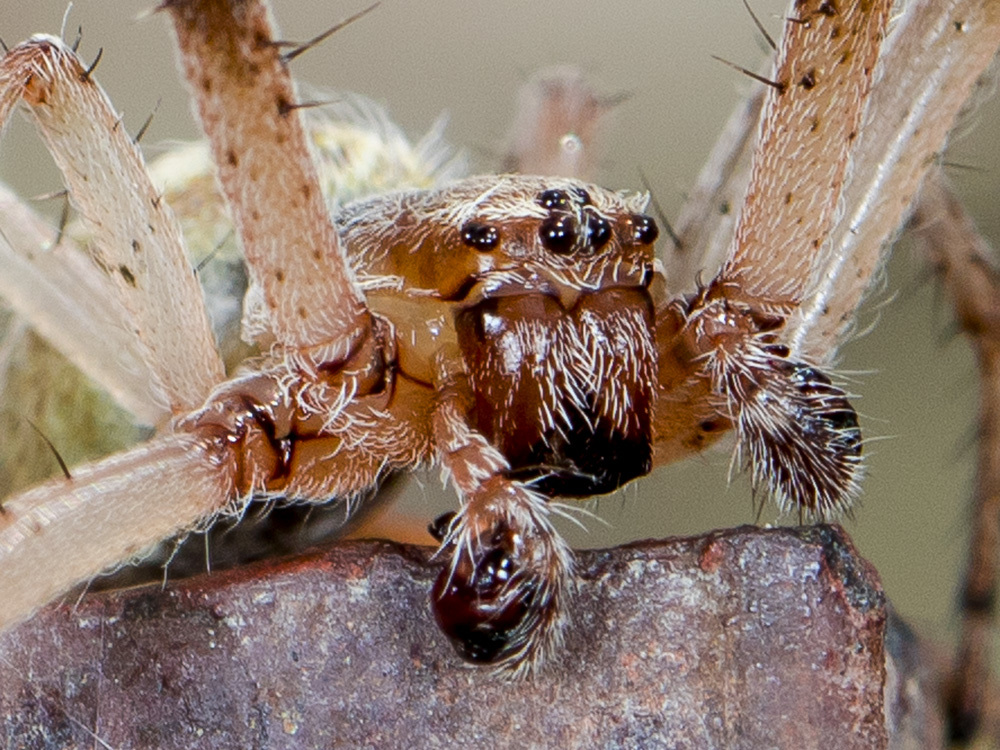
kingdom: Animalia
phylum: Arthropoda
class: Arachnida
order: Araneae
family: Araneidae
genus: Larinioides
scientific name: Larinioides ixobolus
